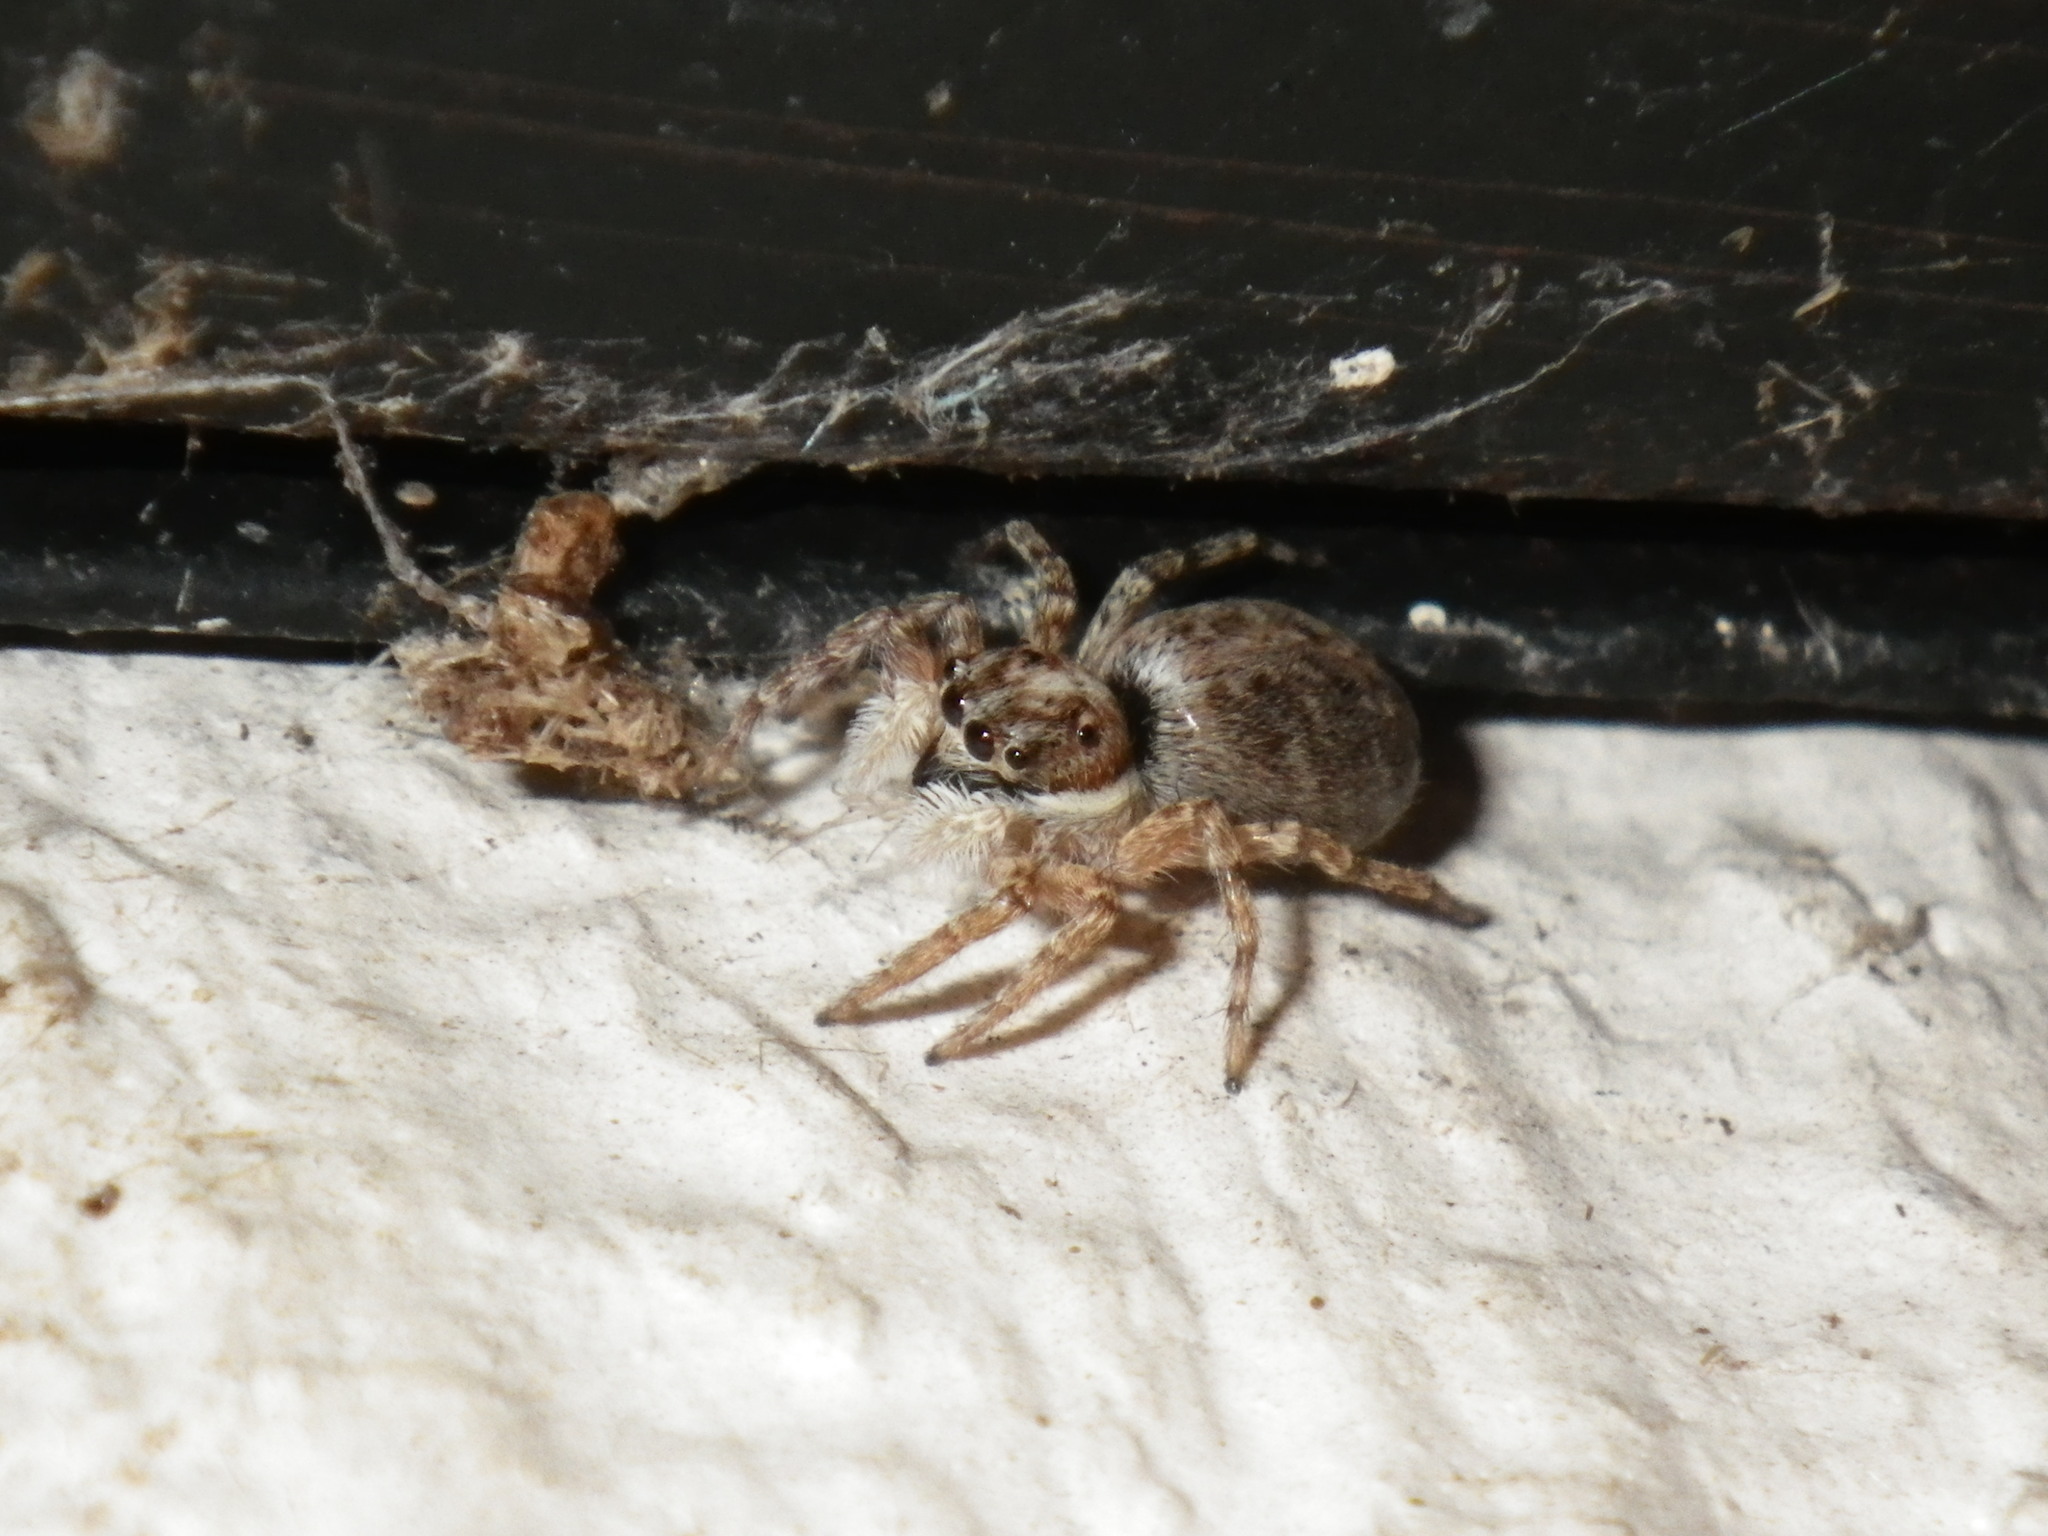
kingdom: Animalia
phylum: Arthropoda
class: Arachnida
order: Araneae
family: Salticidae
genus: Menemerus
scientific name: Menemerus semilimbatus
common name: Jumping spider
